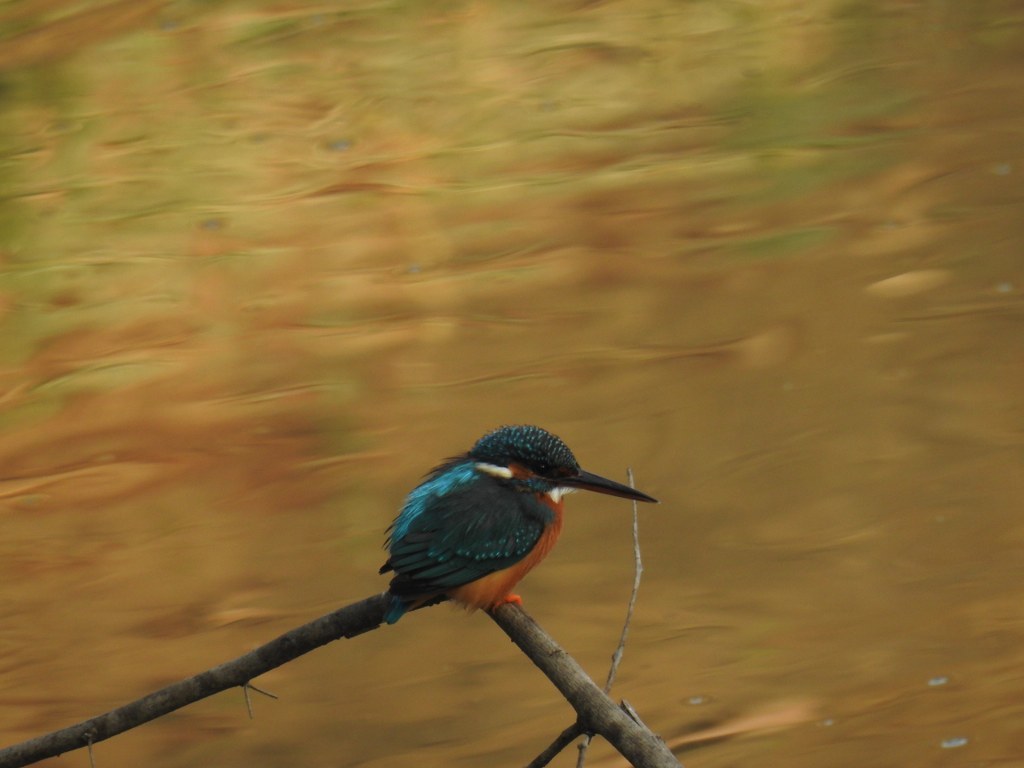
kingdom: Animalia
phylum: Chordata
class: Aves
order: Coraciiformes
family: Alcedinidae
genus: Alcedo
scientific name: Alcedo atthis
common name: Common kingfisher
